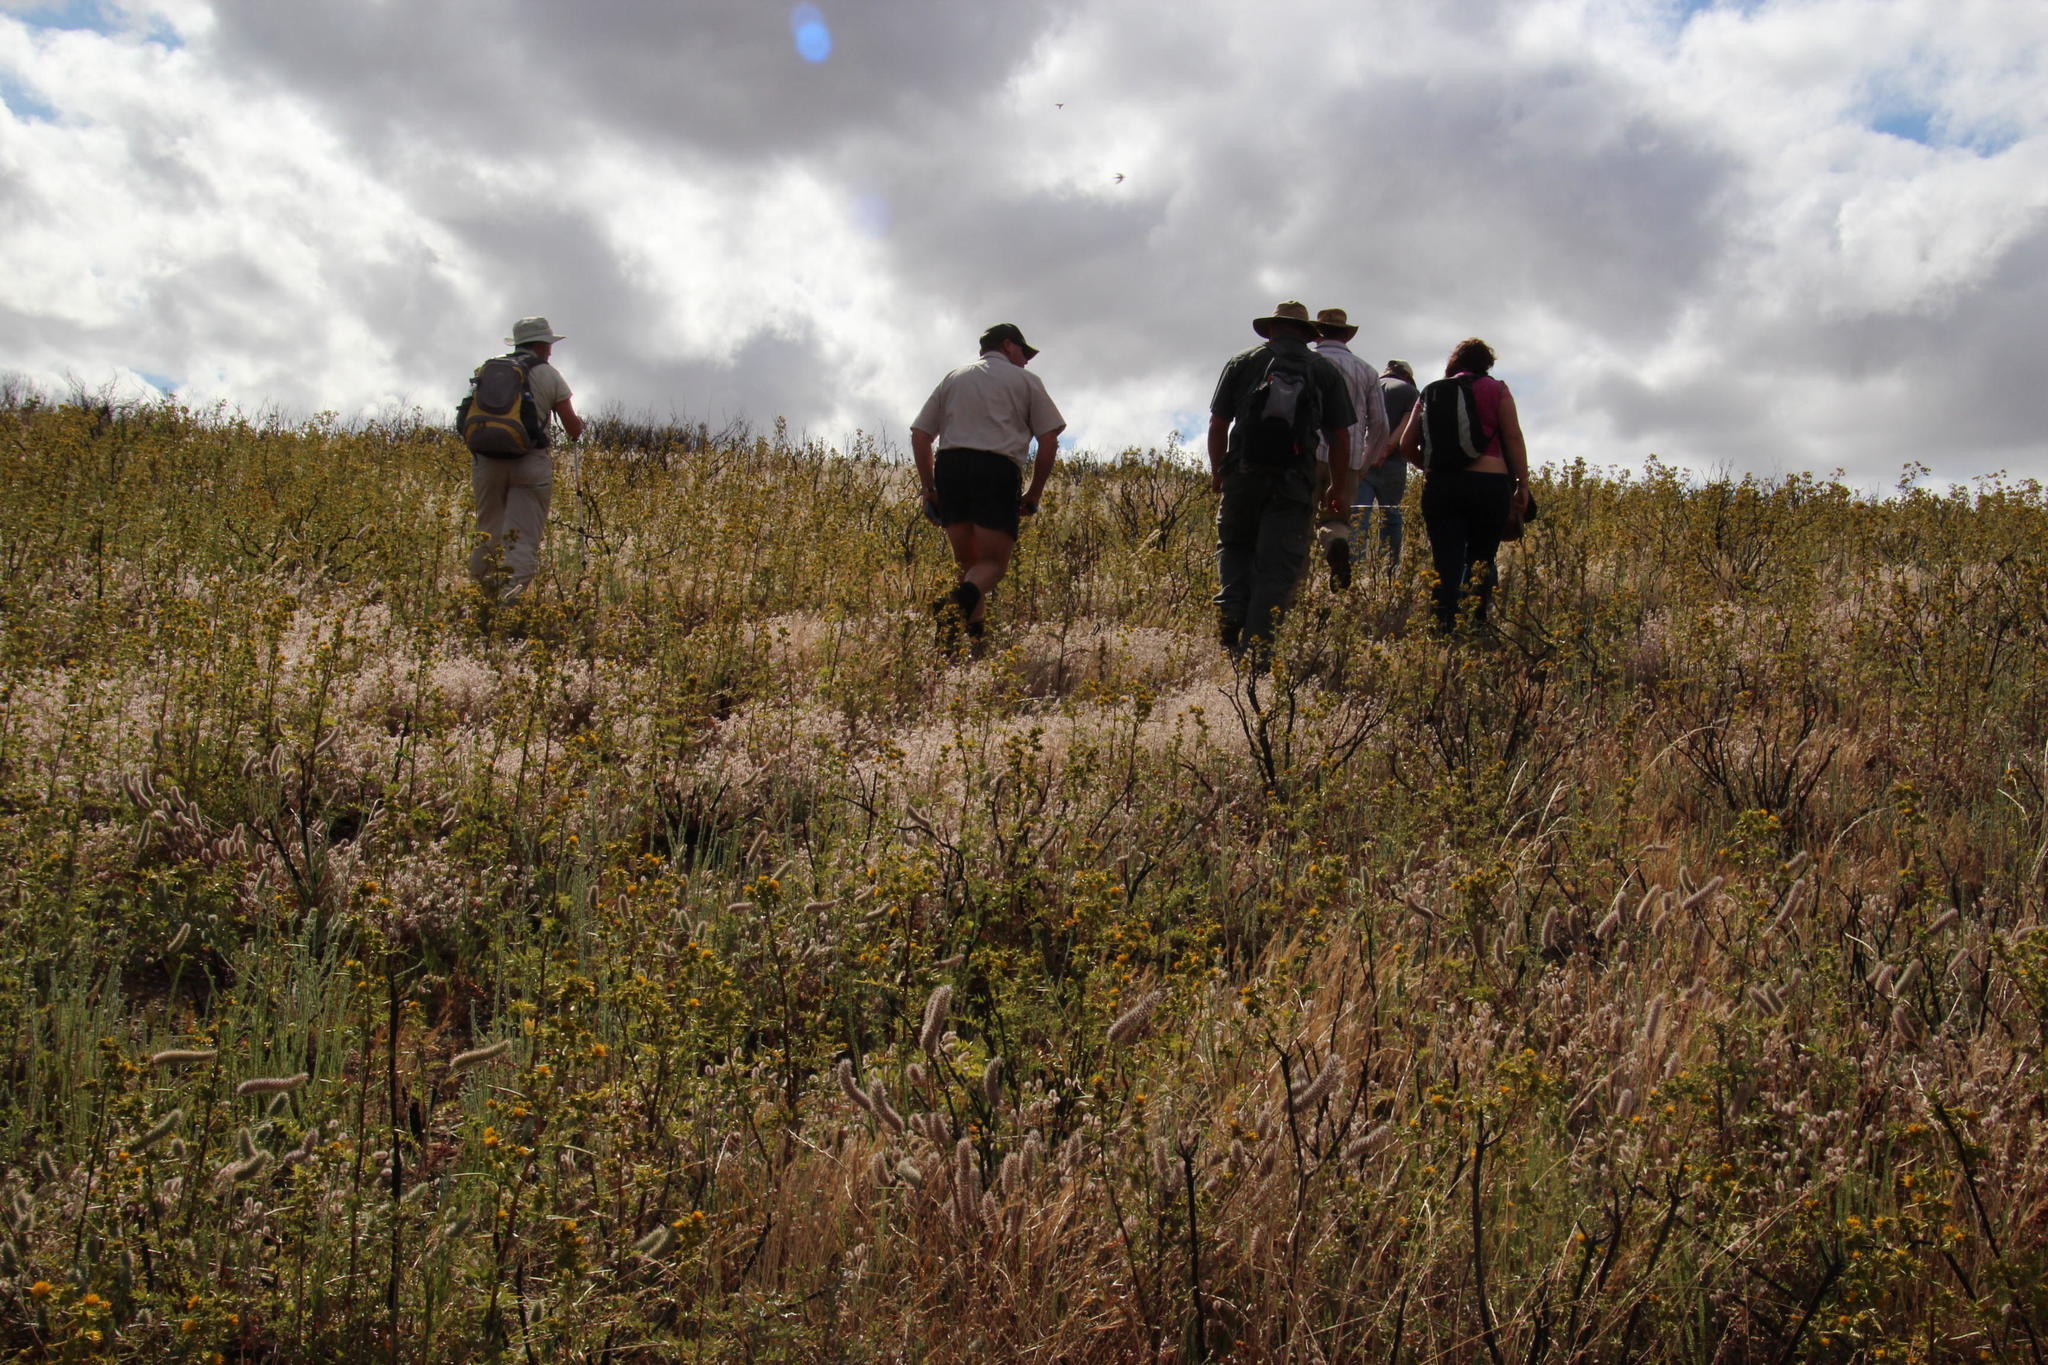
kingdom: Plantae
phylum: Tracheophyta
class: Magnoliopsida
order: Asterales
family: Asteraceae
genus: Berkheya
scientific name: Berkheya rigida
